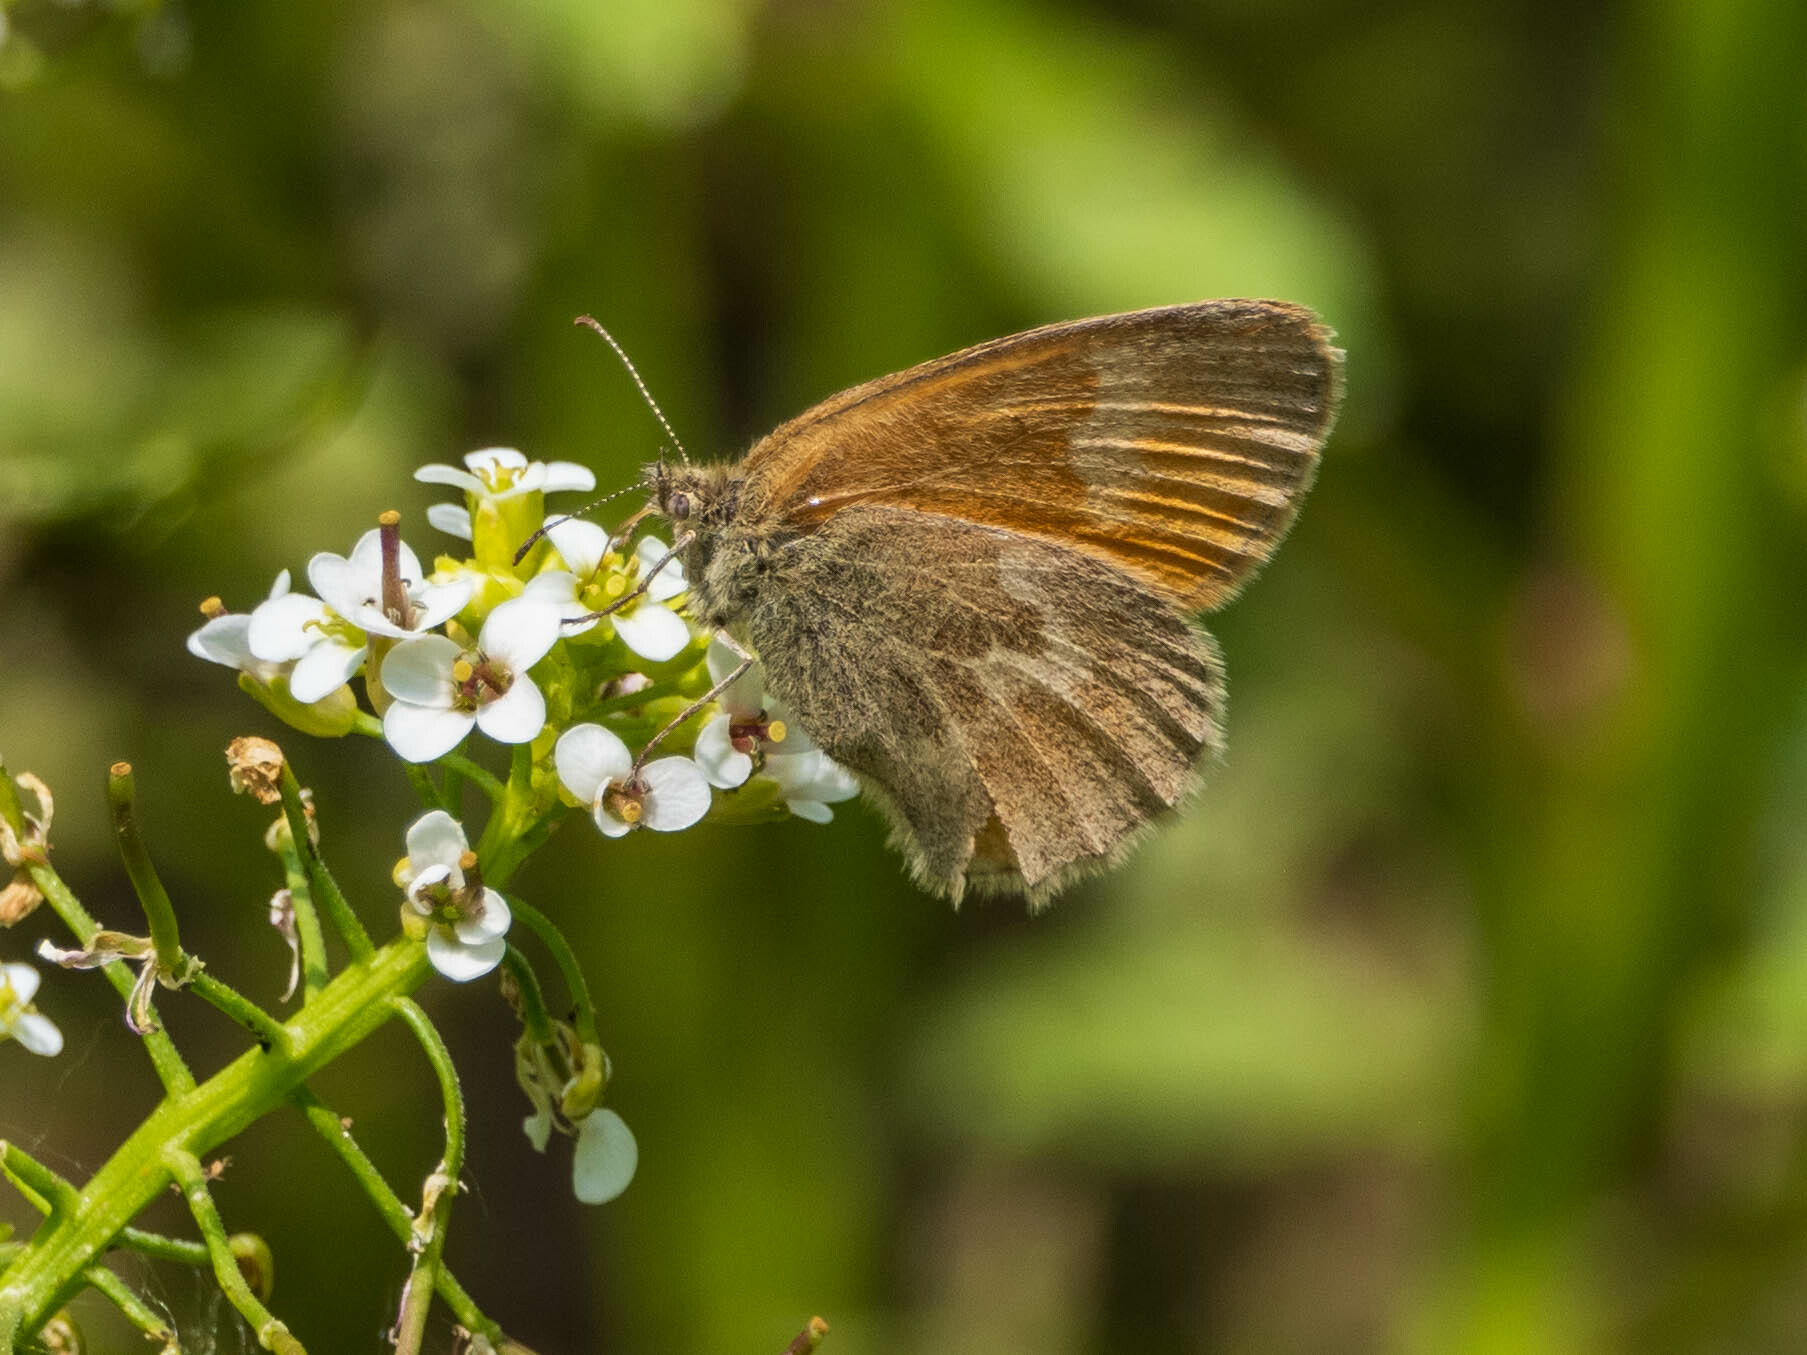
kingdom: Animalia
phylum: Arthropoda
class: Insecta
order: Lepidoptera
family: Nymphalidae
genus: Coenonympha
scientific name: Coenonympha california
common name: Common ringlet
